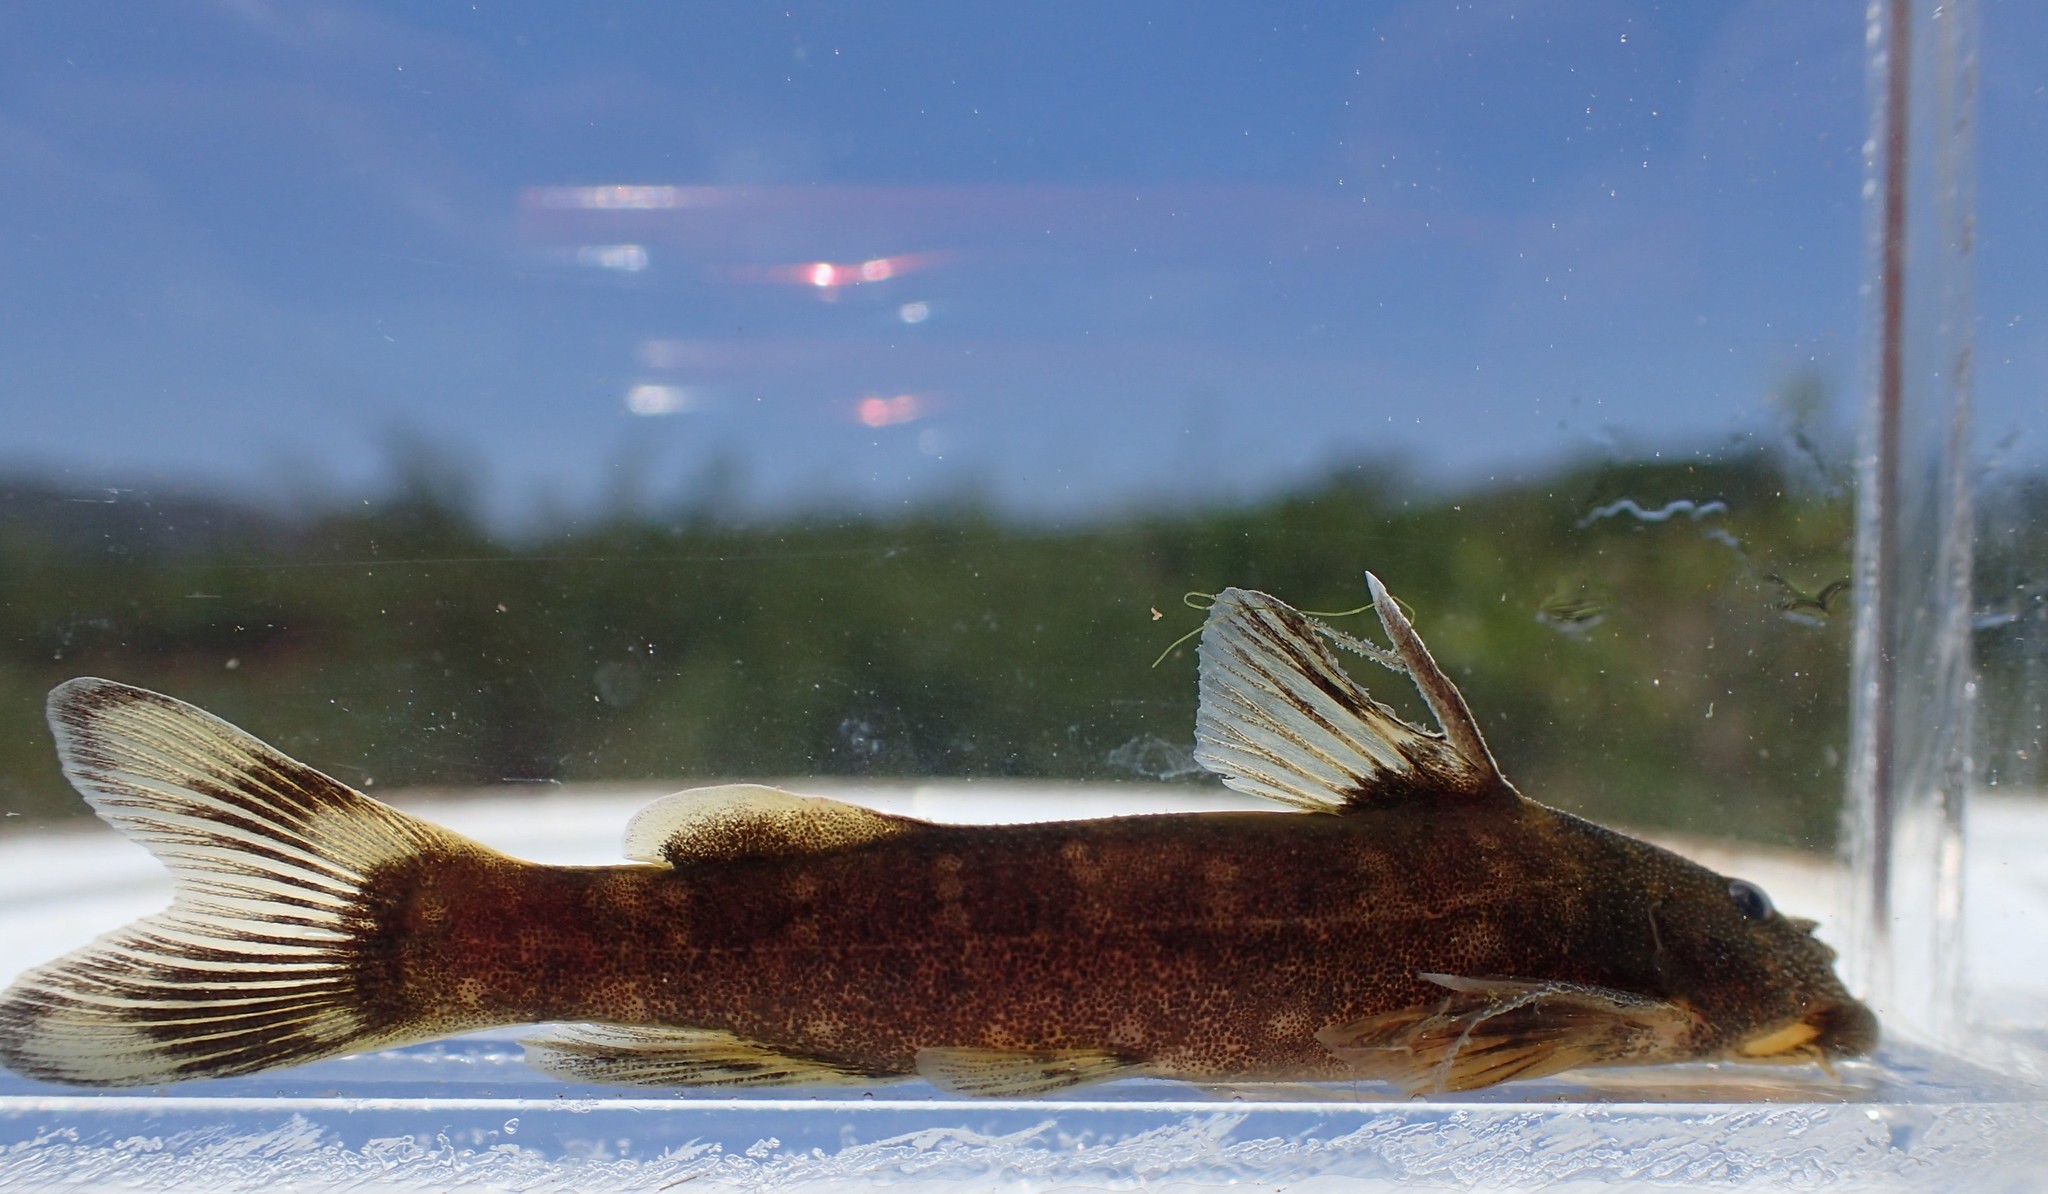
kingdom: Animalia
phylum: Chordata
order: Siluriformes
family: Mochokidae
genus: Chiloglanis
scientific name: Chiloglanis paratus
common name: Sawfin catlet
